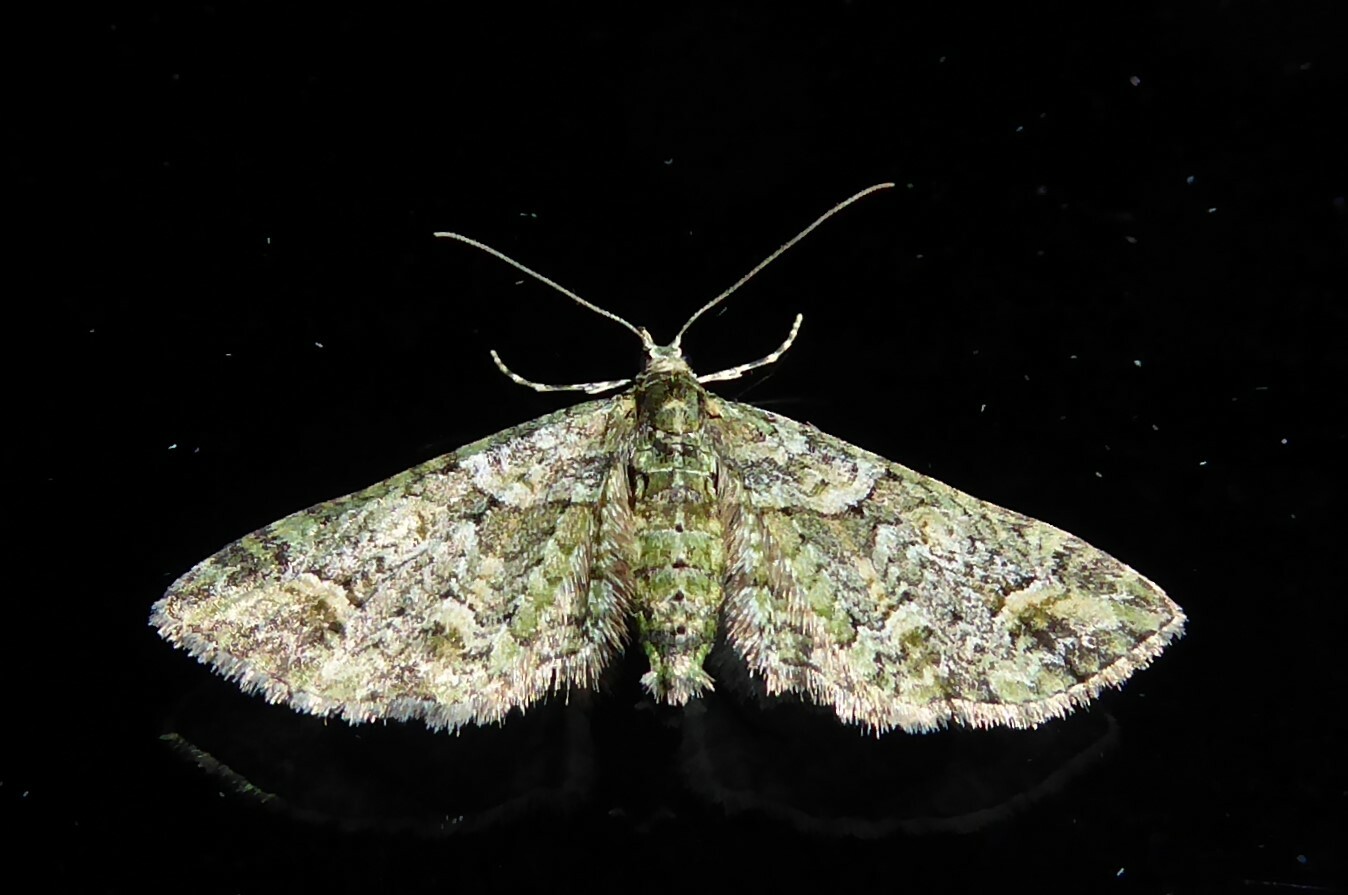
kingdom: Animalia
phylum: Arthropoda
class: Insecta
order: Lepidoptera
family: Geometridae
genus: Idaea
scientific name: Idaea mutanda
